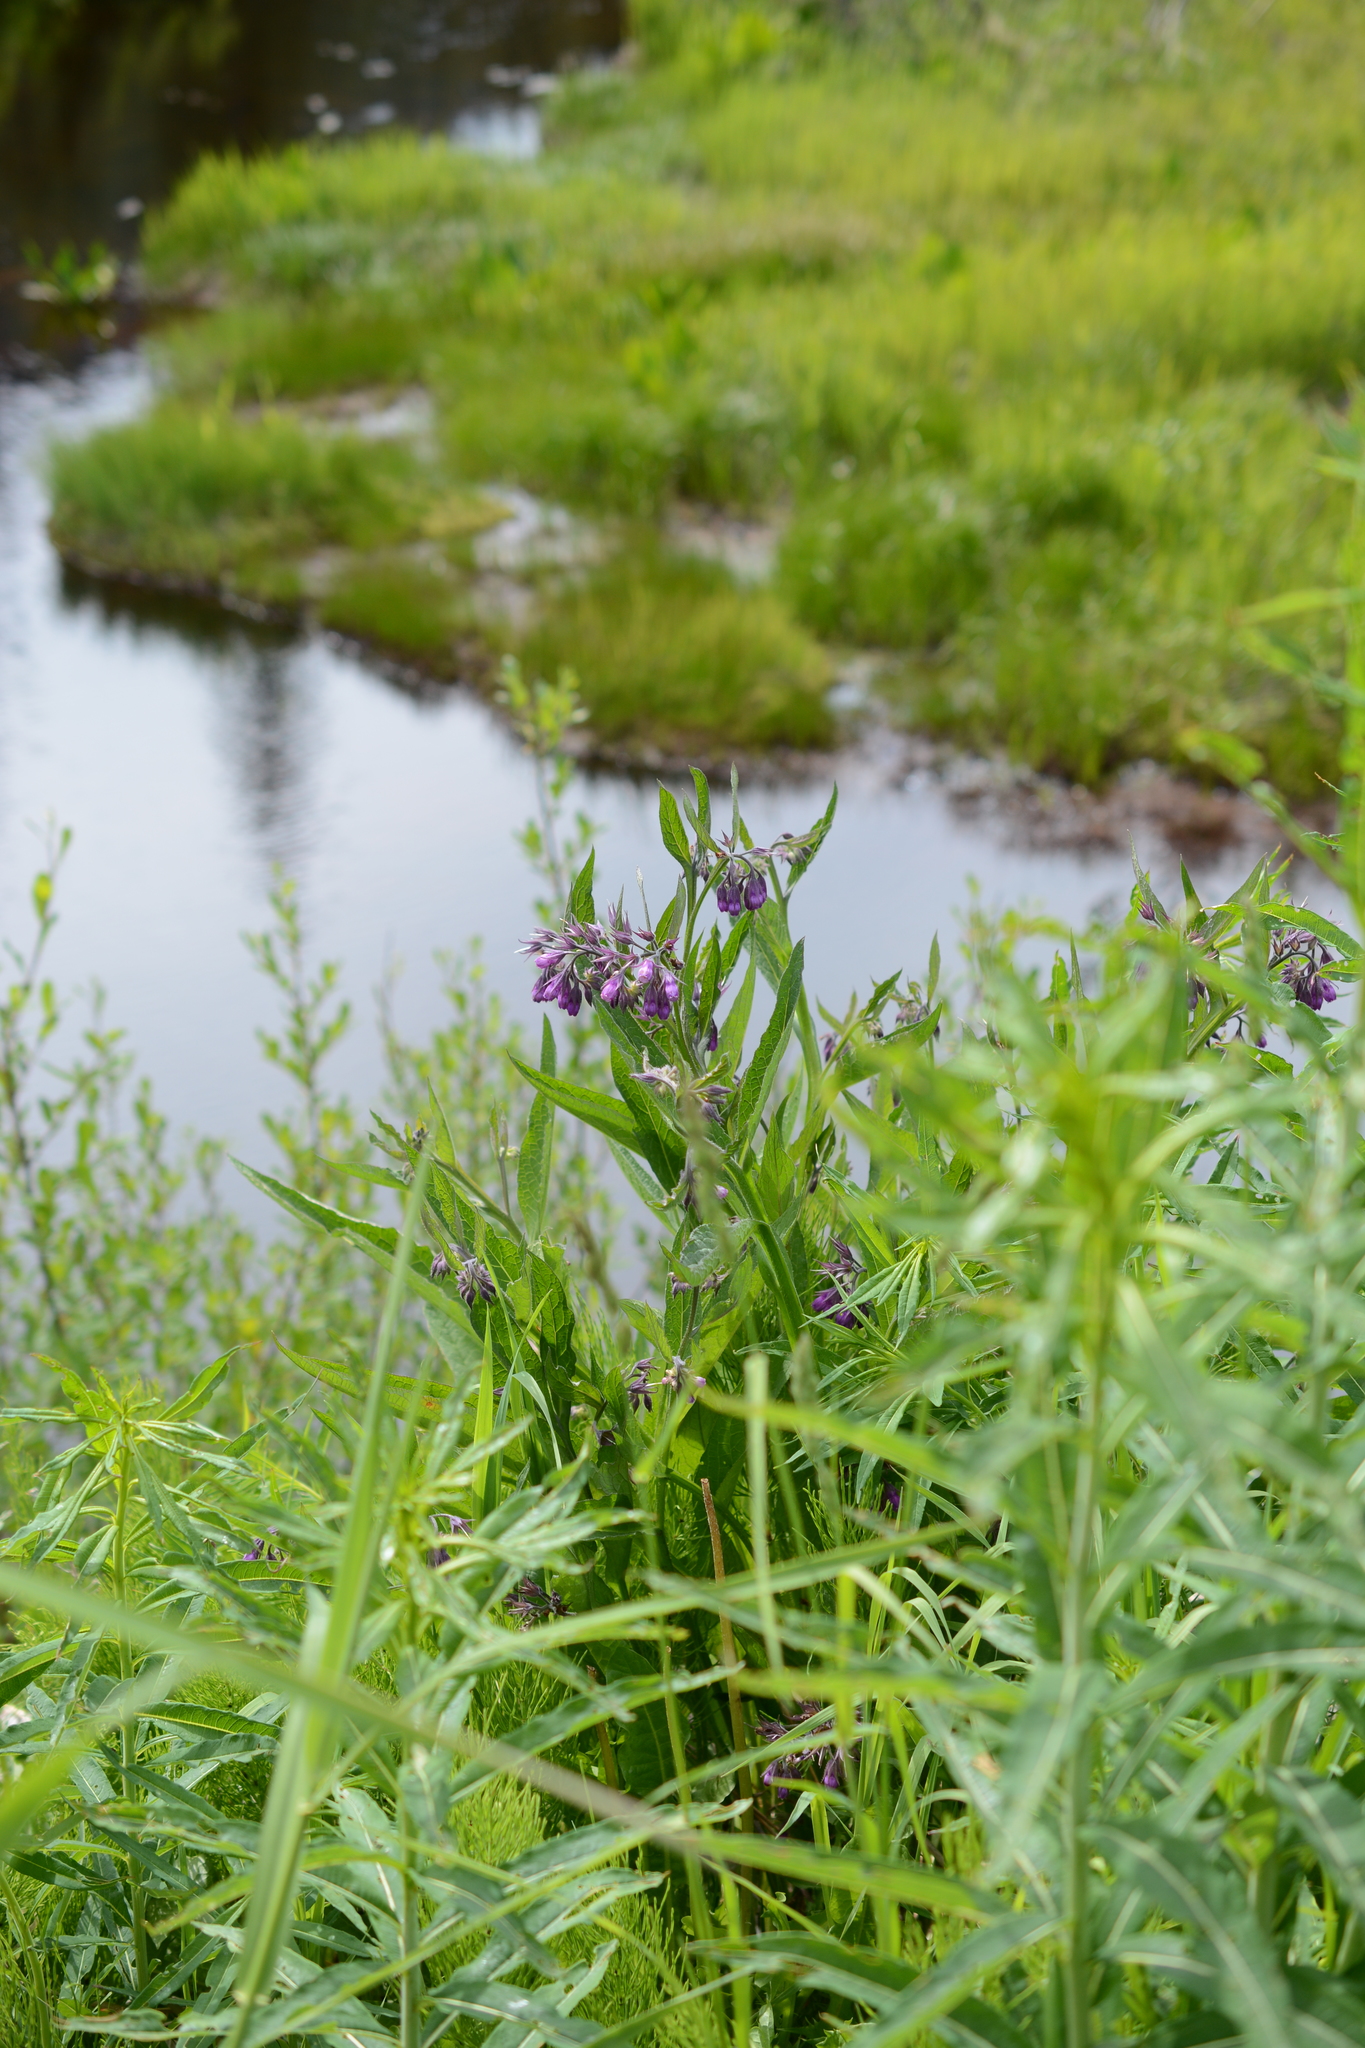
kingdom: Plantae
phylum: Tracheophyta
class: Magnoliopsida
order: Boraginales
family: Boraginaceae
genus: Symphytum
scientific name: Symphytum officinale
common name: Common comfrey
